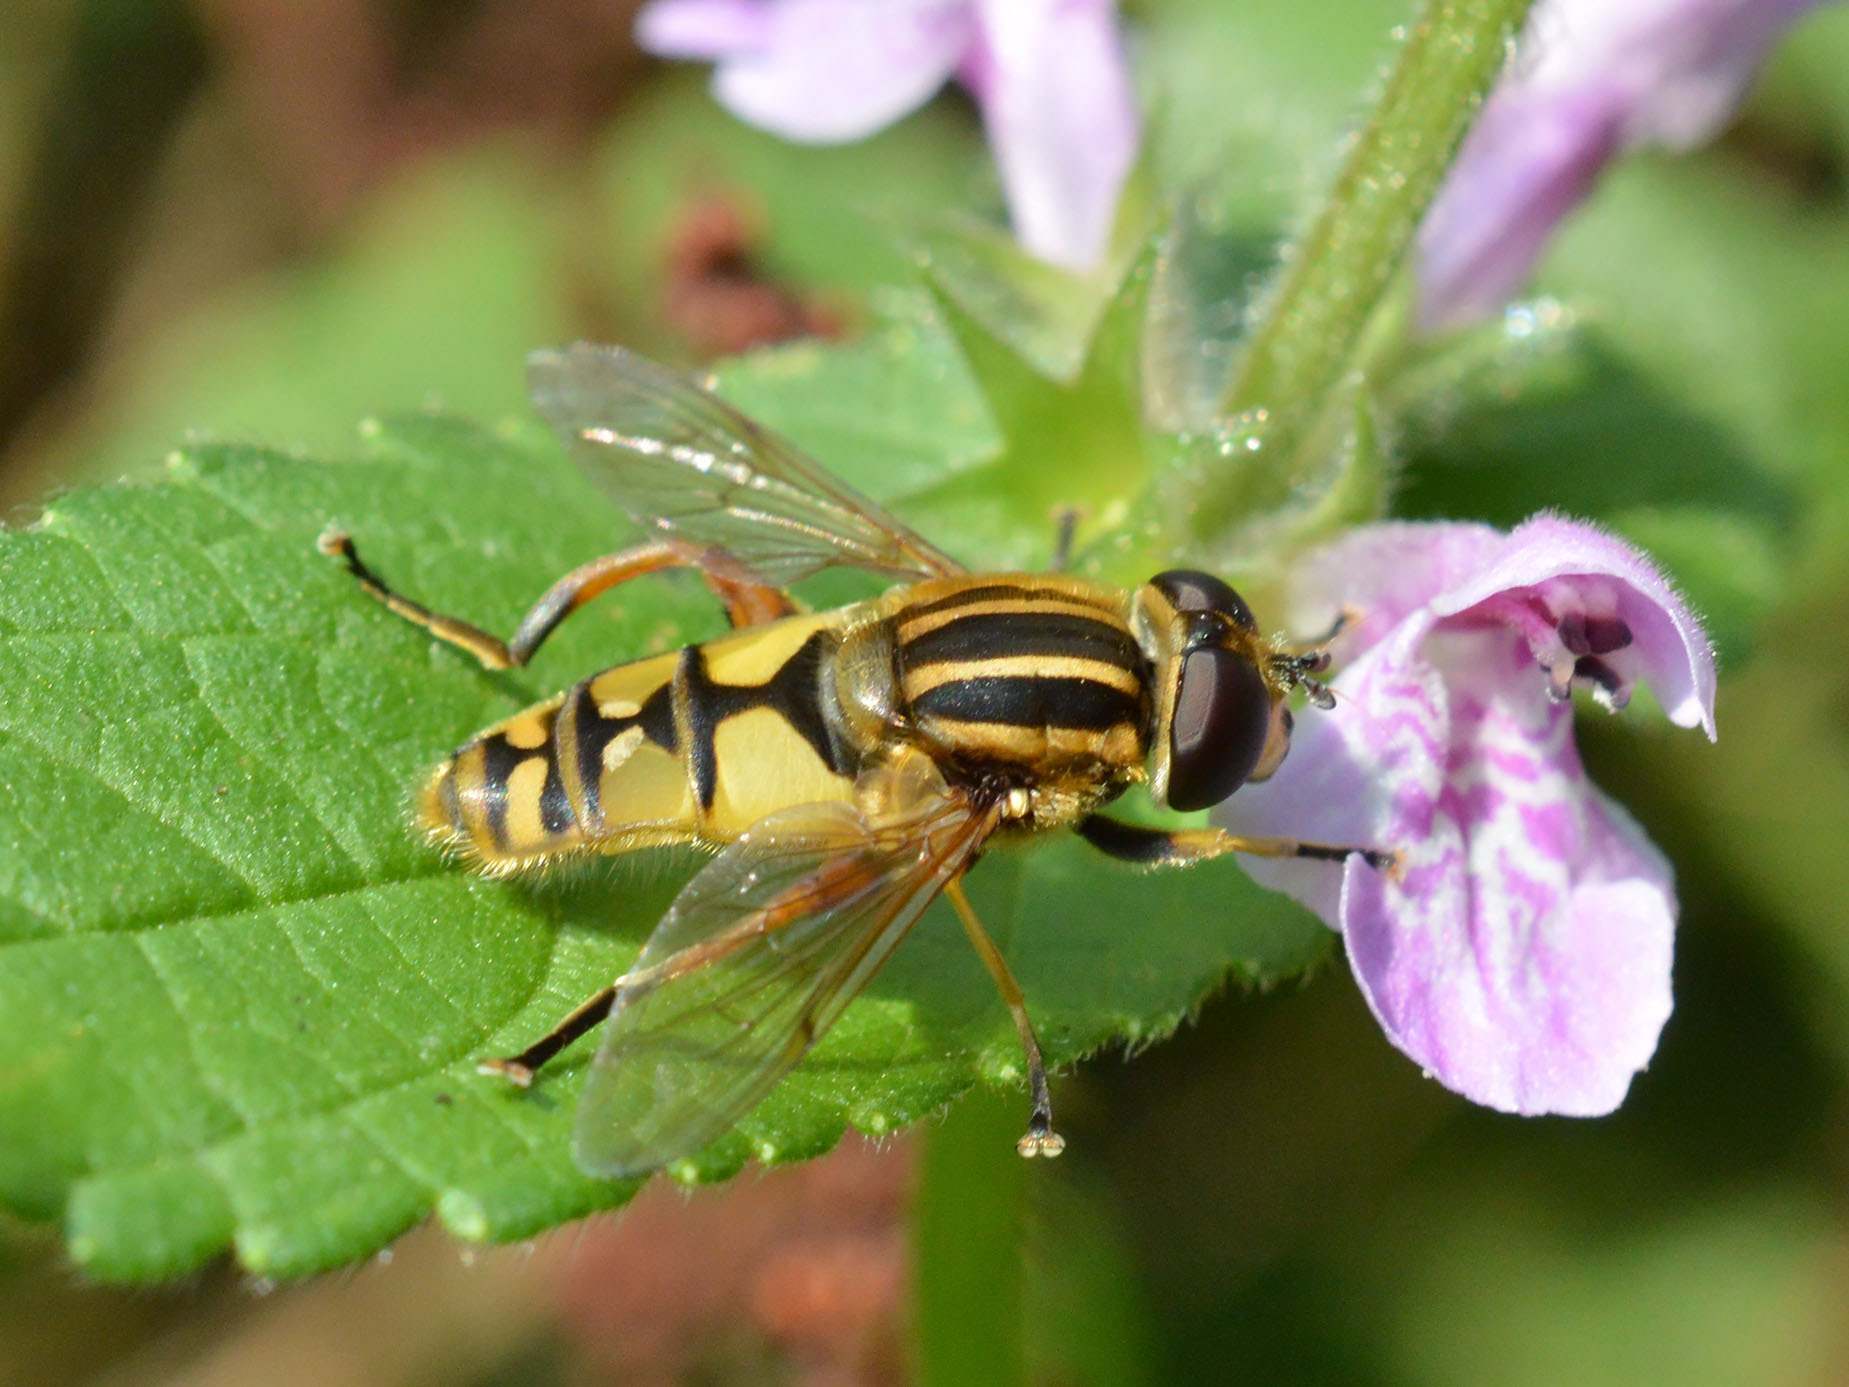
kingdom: Animalia
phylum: Arthropoda
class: Insecta
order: Diptera
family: Syrphidae
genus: Helophilus
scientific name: Helophilus pendulus
